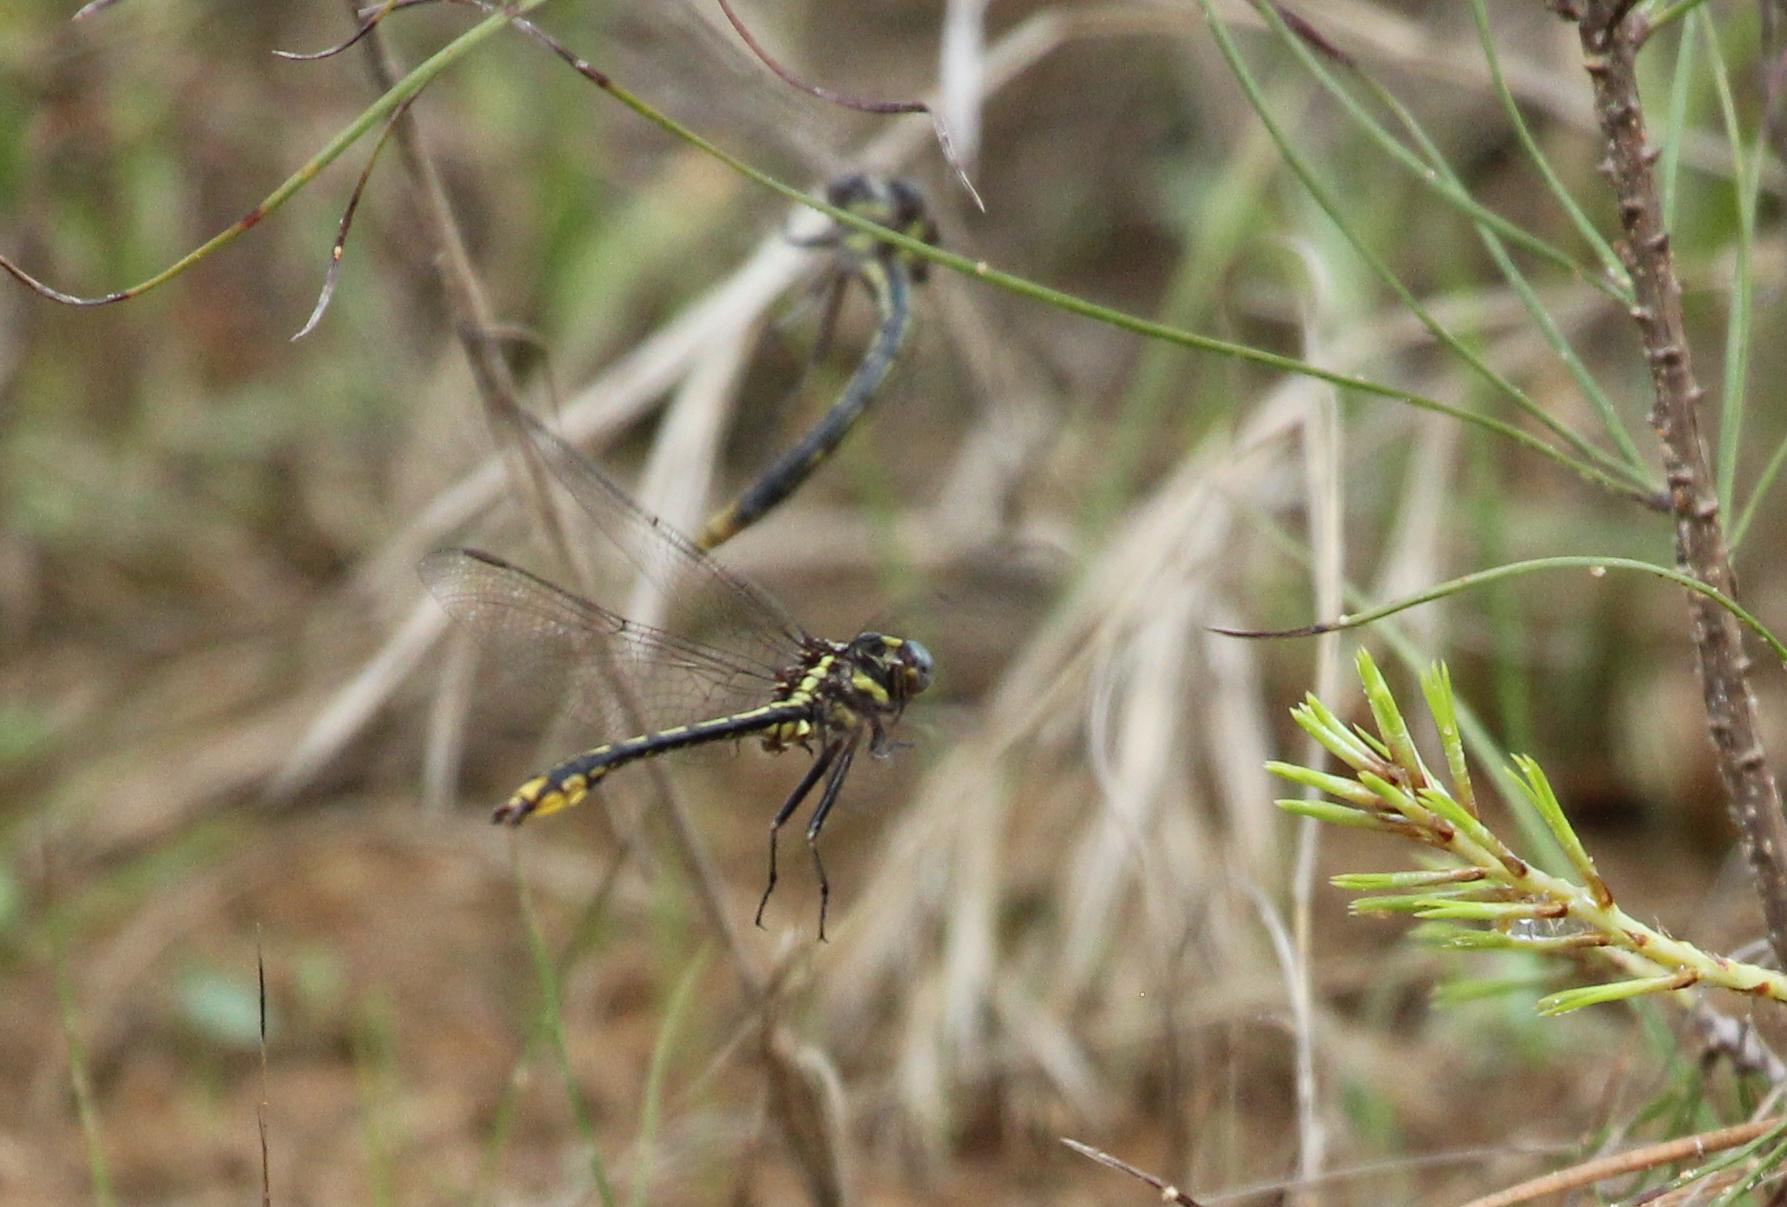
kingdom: Animalia
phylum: Arthropoda
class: Insecta
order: Odonata
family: Gomphidae
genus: Phanogomphus
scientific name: Phanogomphus exilis
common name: Lancet clubtail
